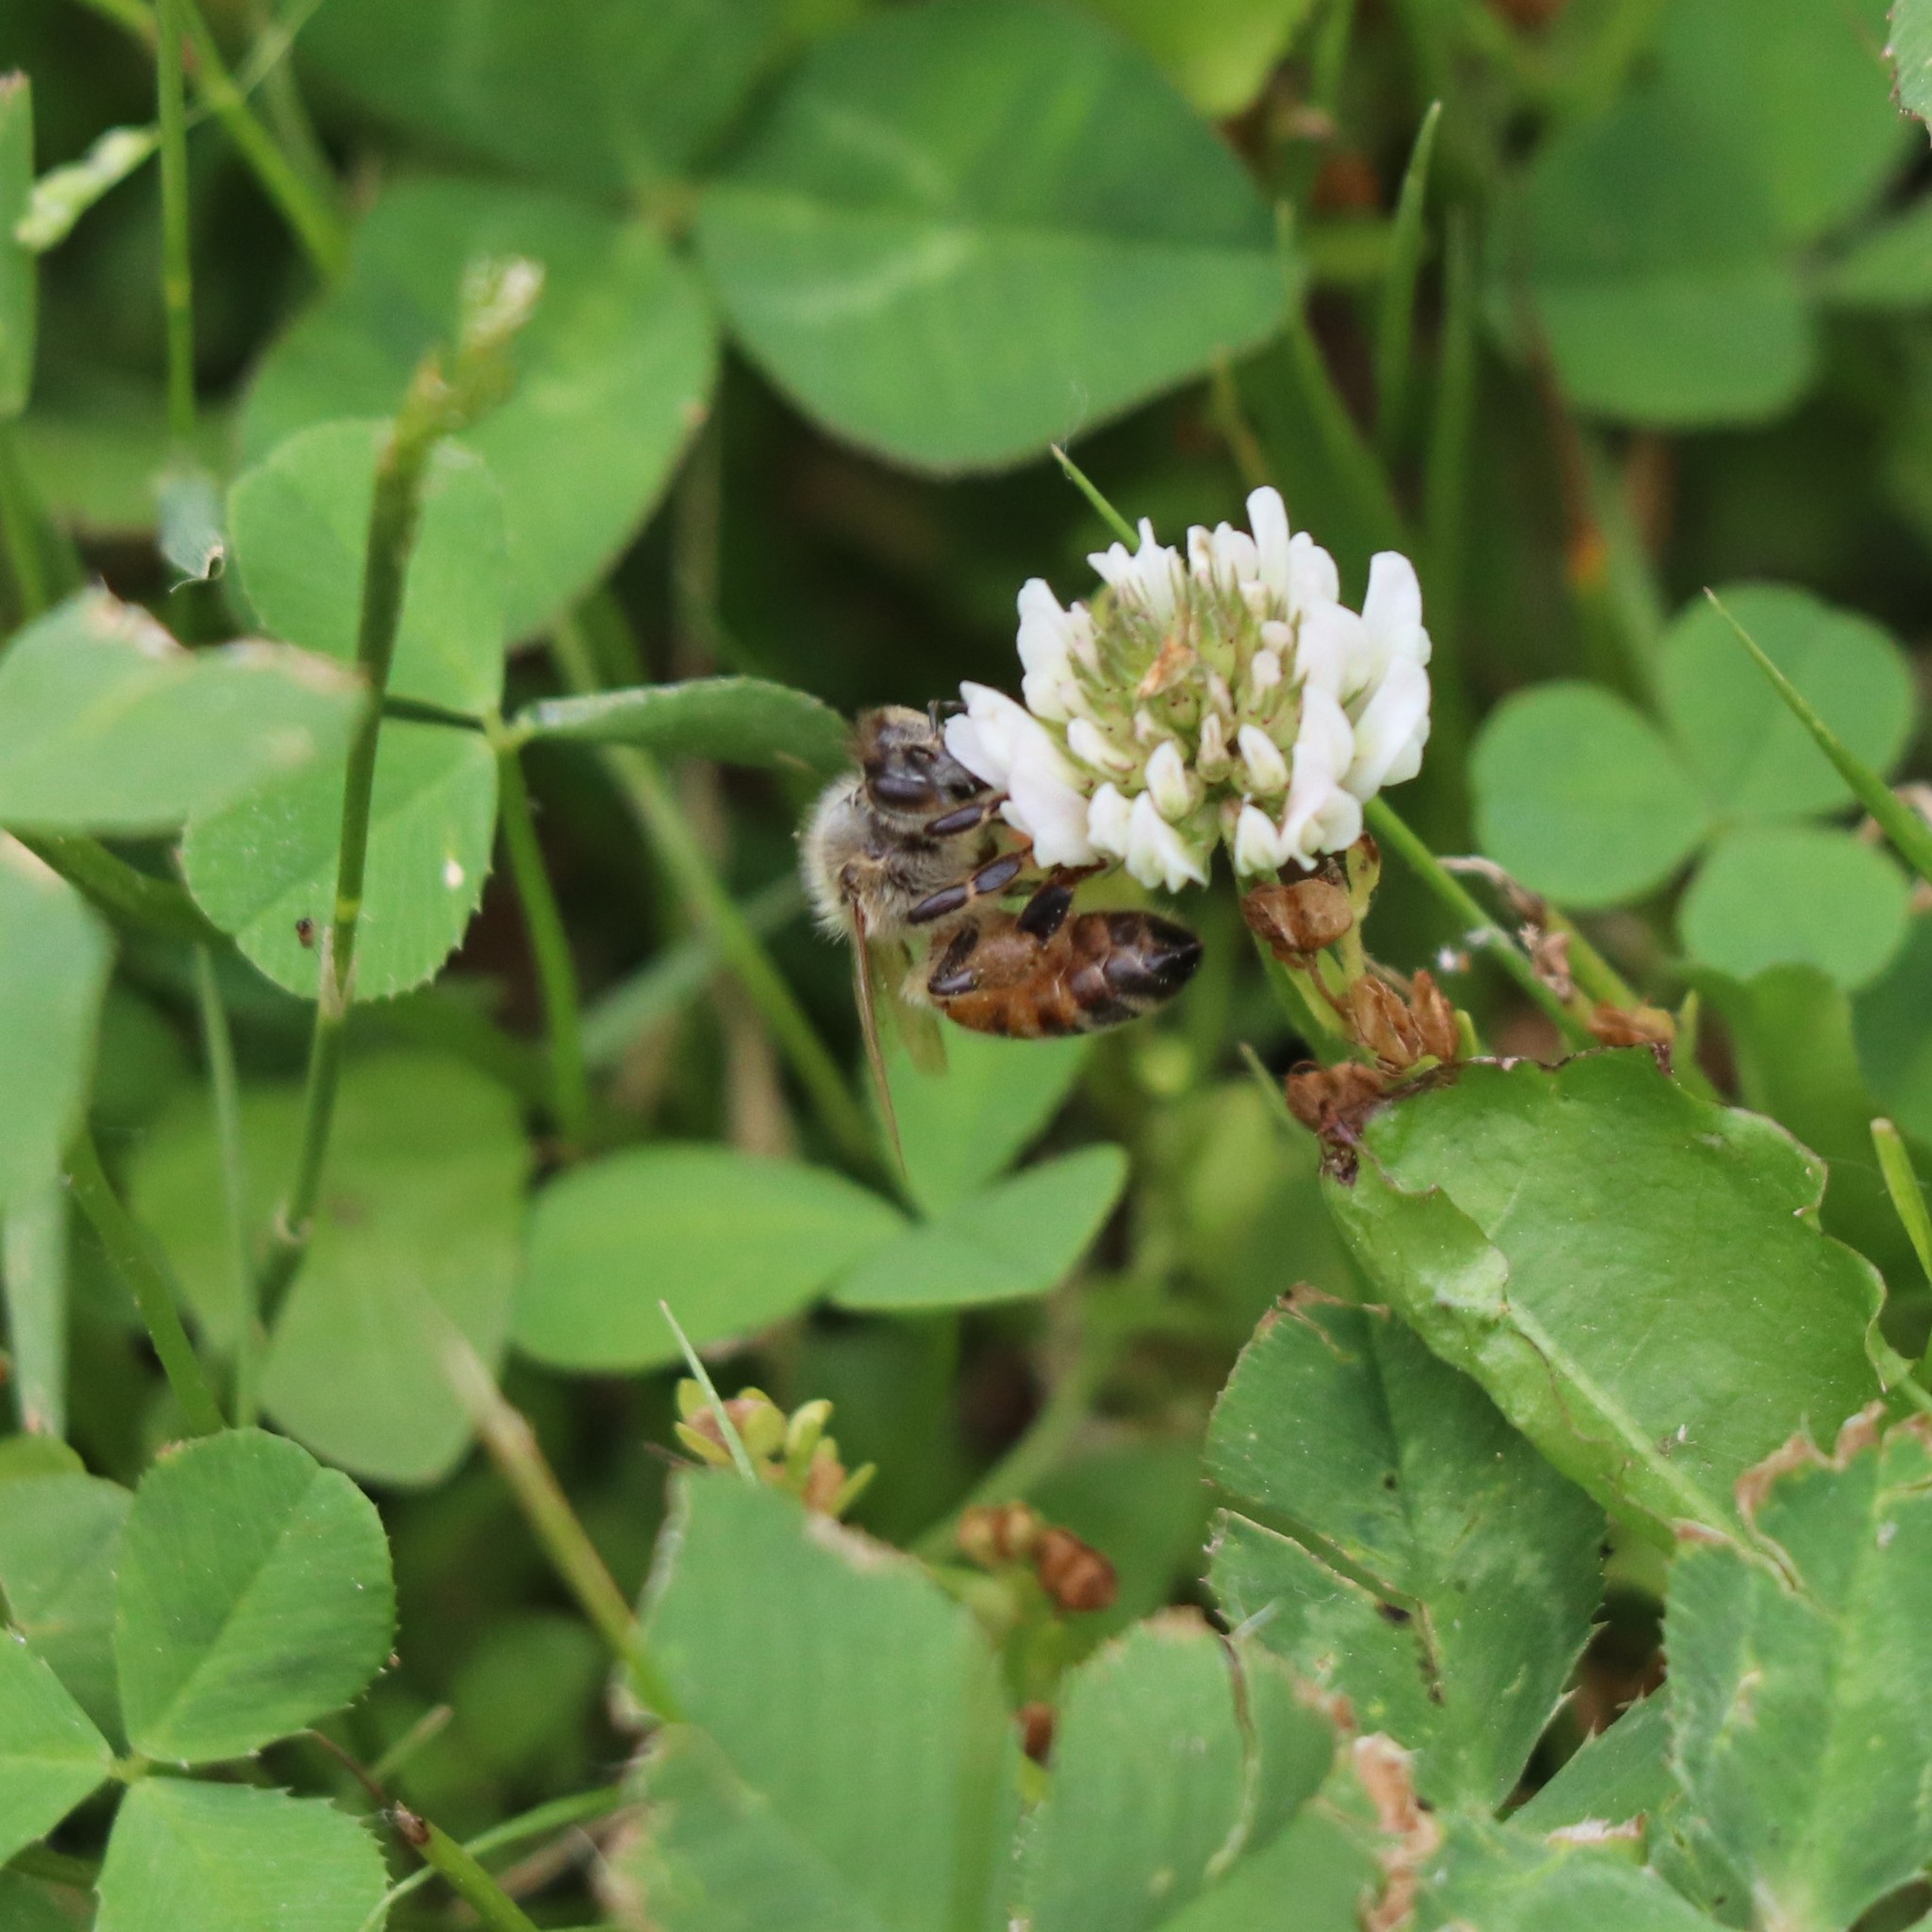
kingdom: Animalia
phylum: Arthropoda
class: Insecta
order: Hymenoptera
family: Apidae
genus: Apis
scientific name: Apis mellifera
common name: Honey bee
